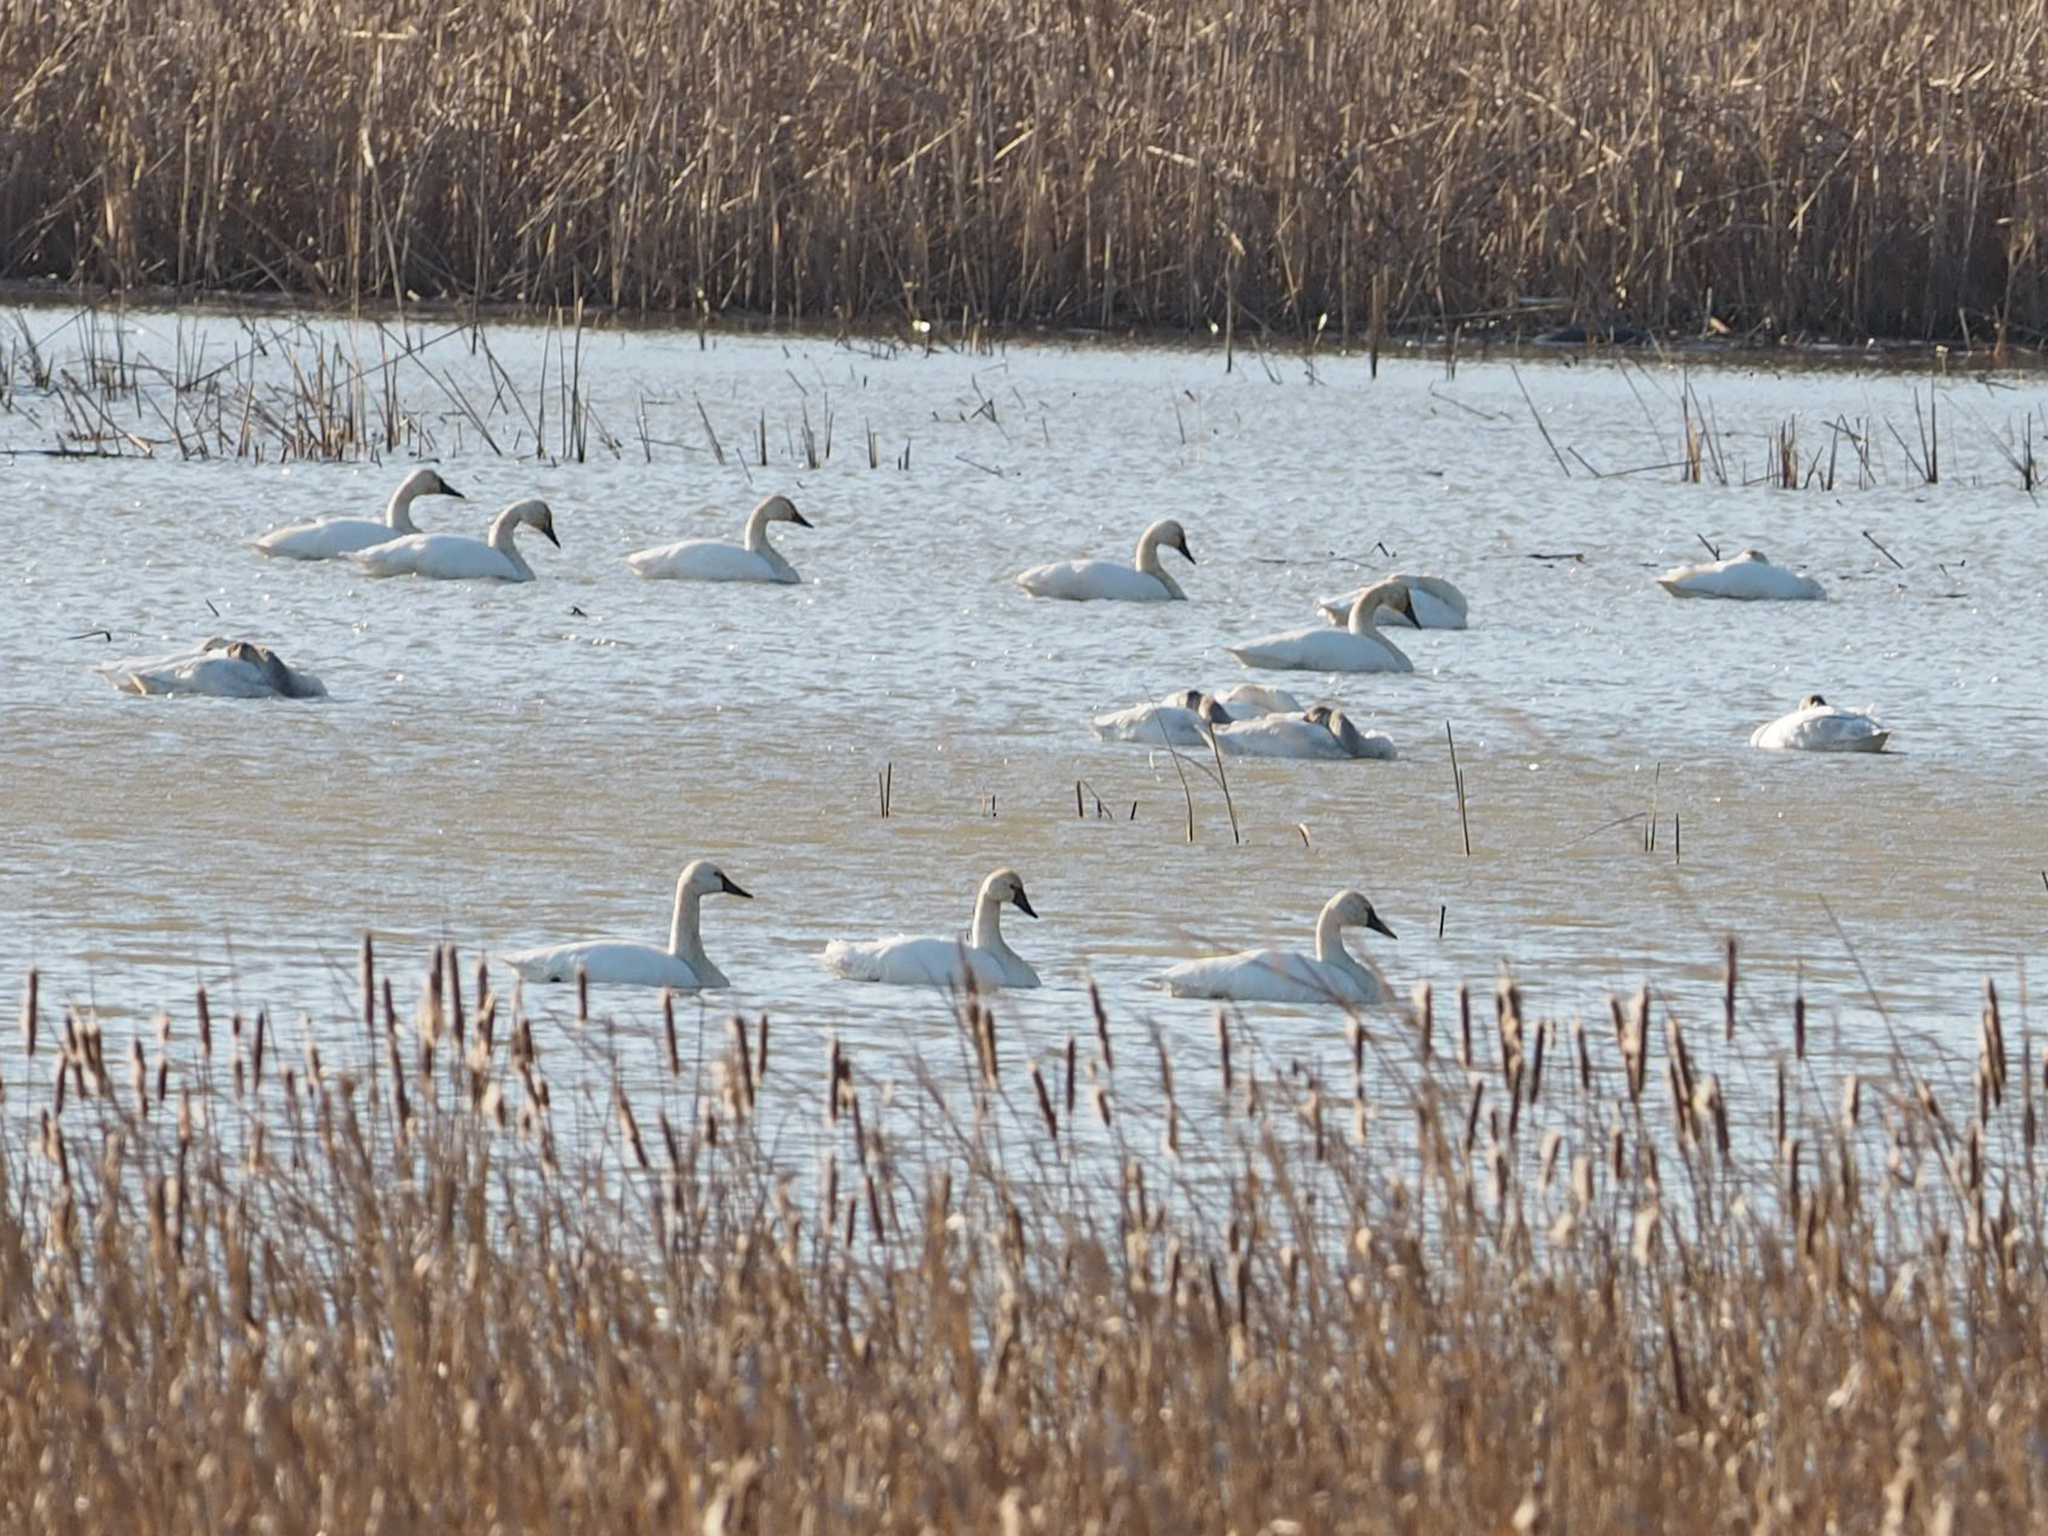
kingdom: Animalia
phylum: Chordata
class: Aves
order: Anseriformes
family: Anatidae
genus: Cygnus
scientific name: Cygnus columbianus
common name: Tundra swan
